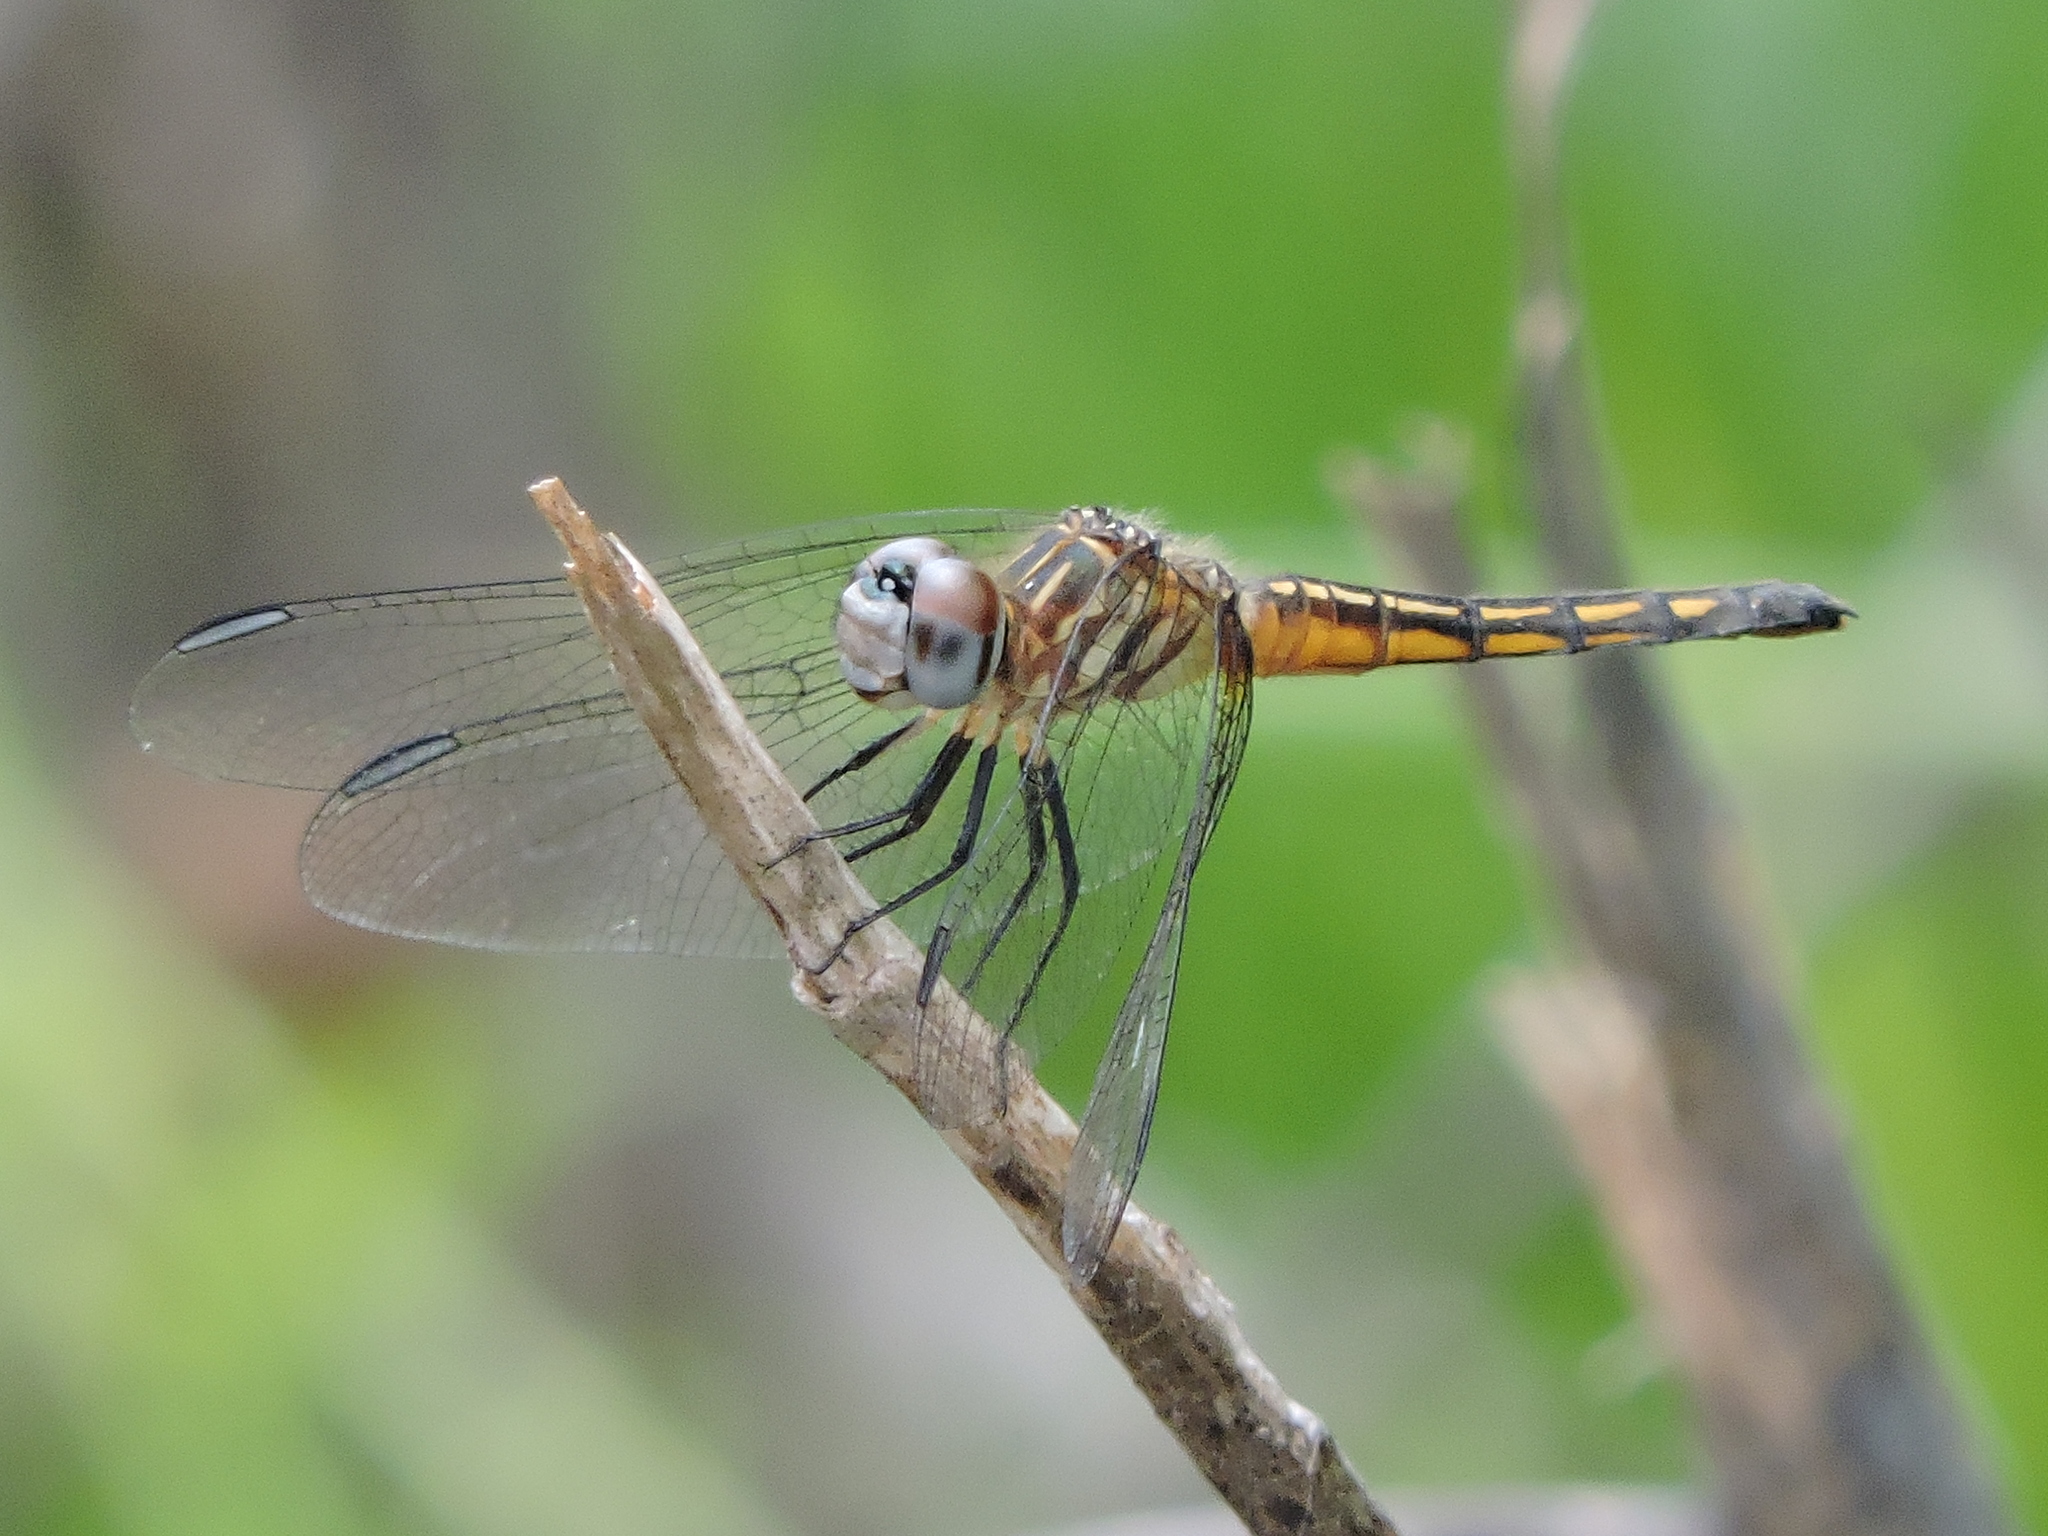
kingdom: Animalia
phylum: Arthropoda
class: Insecta
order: Odonata
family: Libellulidae
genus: Pachydiplax
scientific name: Pachydiplax longipennis
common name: Blue dasher
